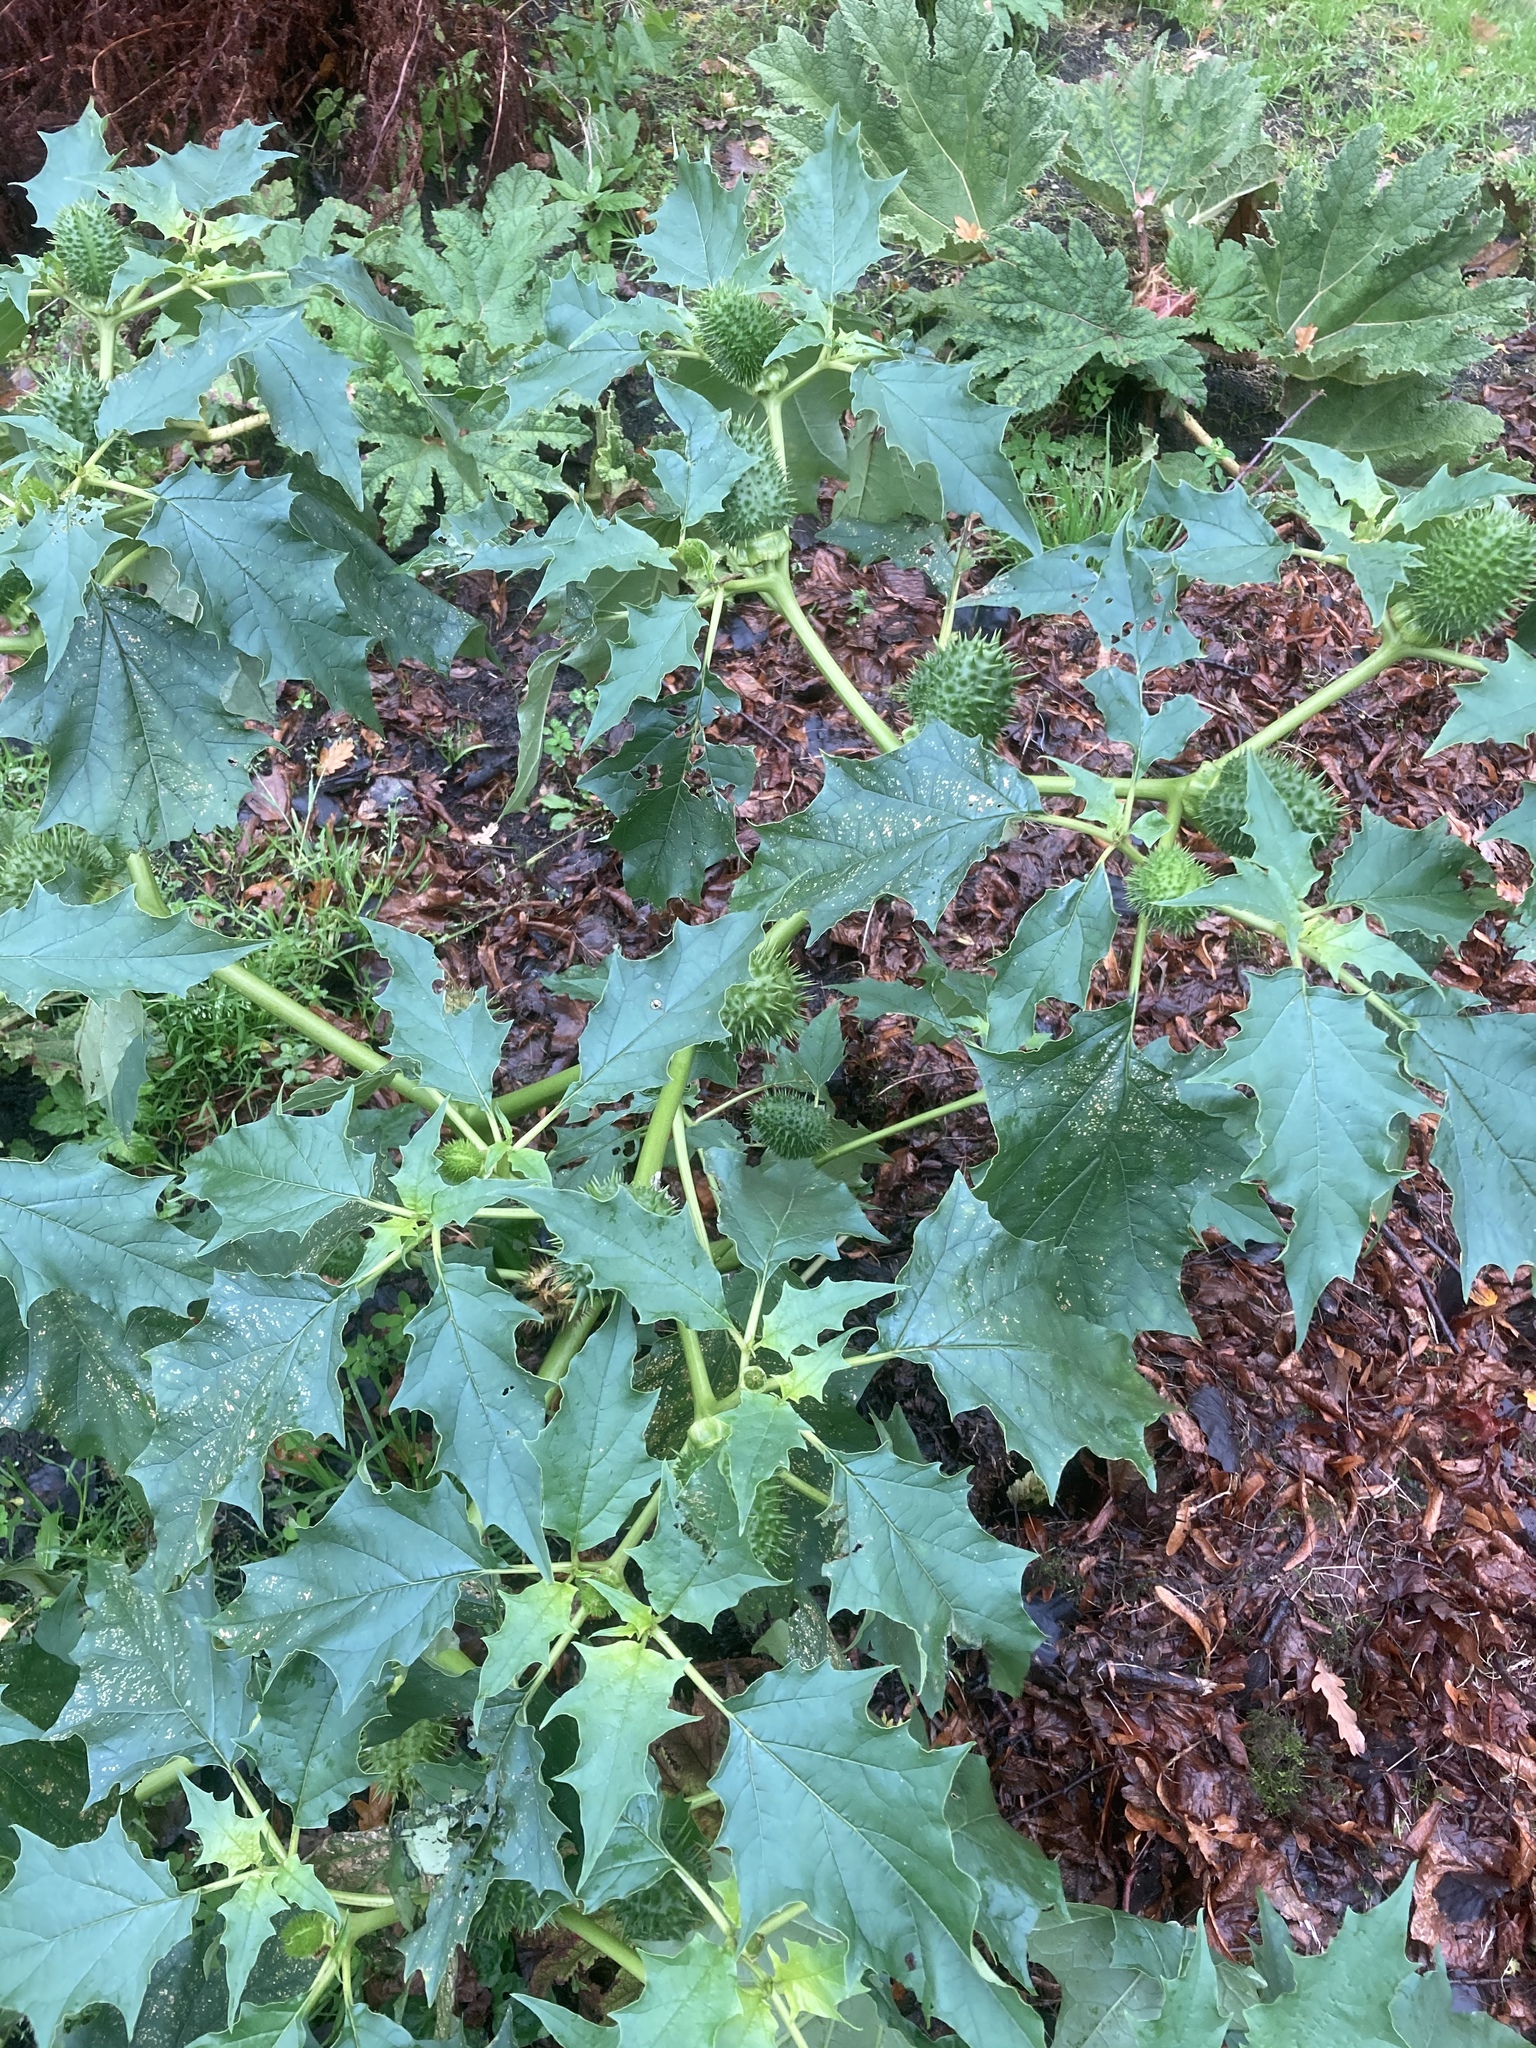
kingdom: Plantae
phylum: Tracheophyta
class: Magnoliopsida
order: Solanales
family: Solanaceae
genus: Datura
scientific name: Datura stramonium
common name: Thorn-apple
